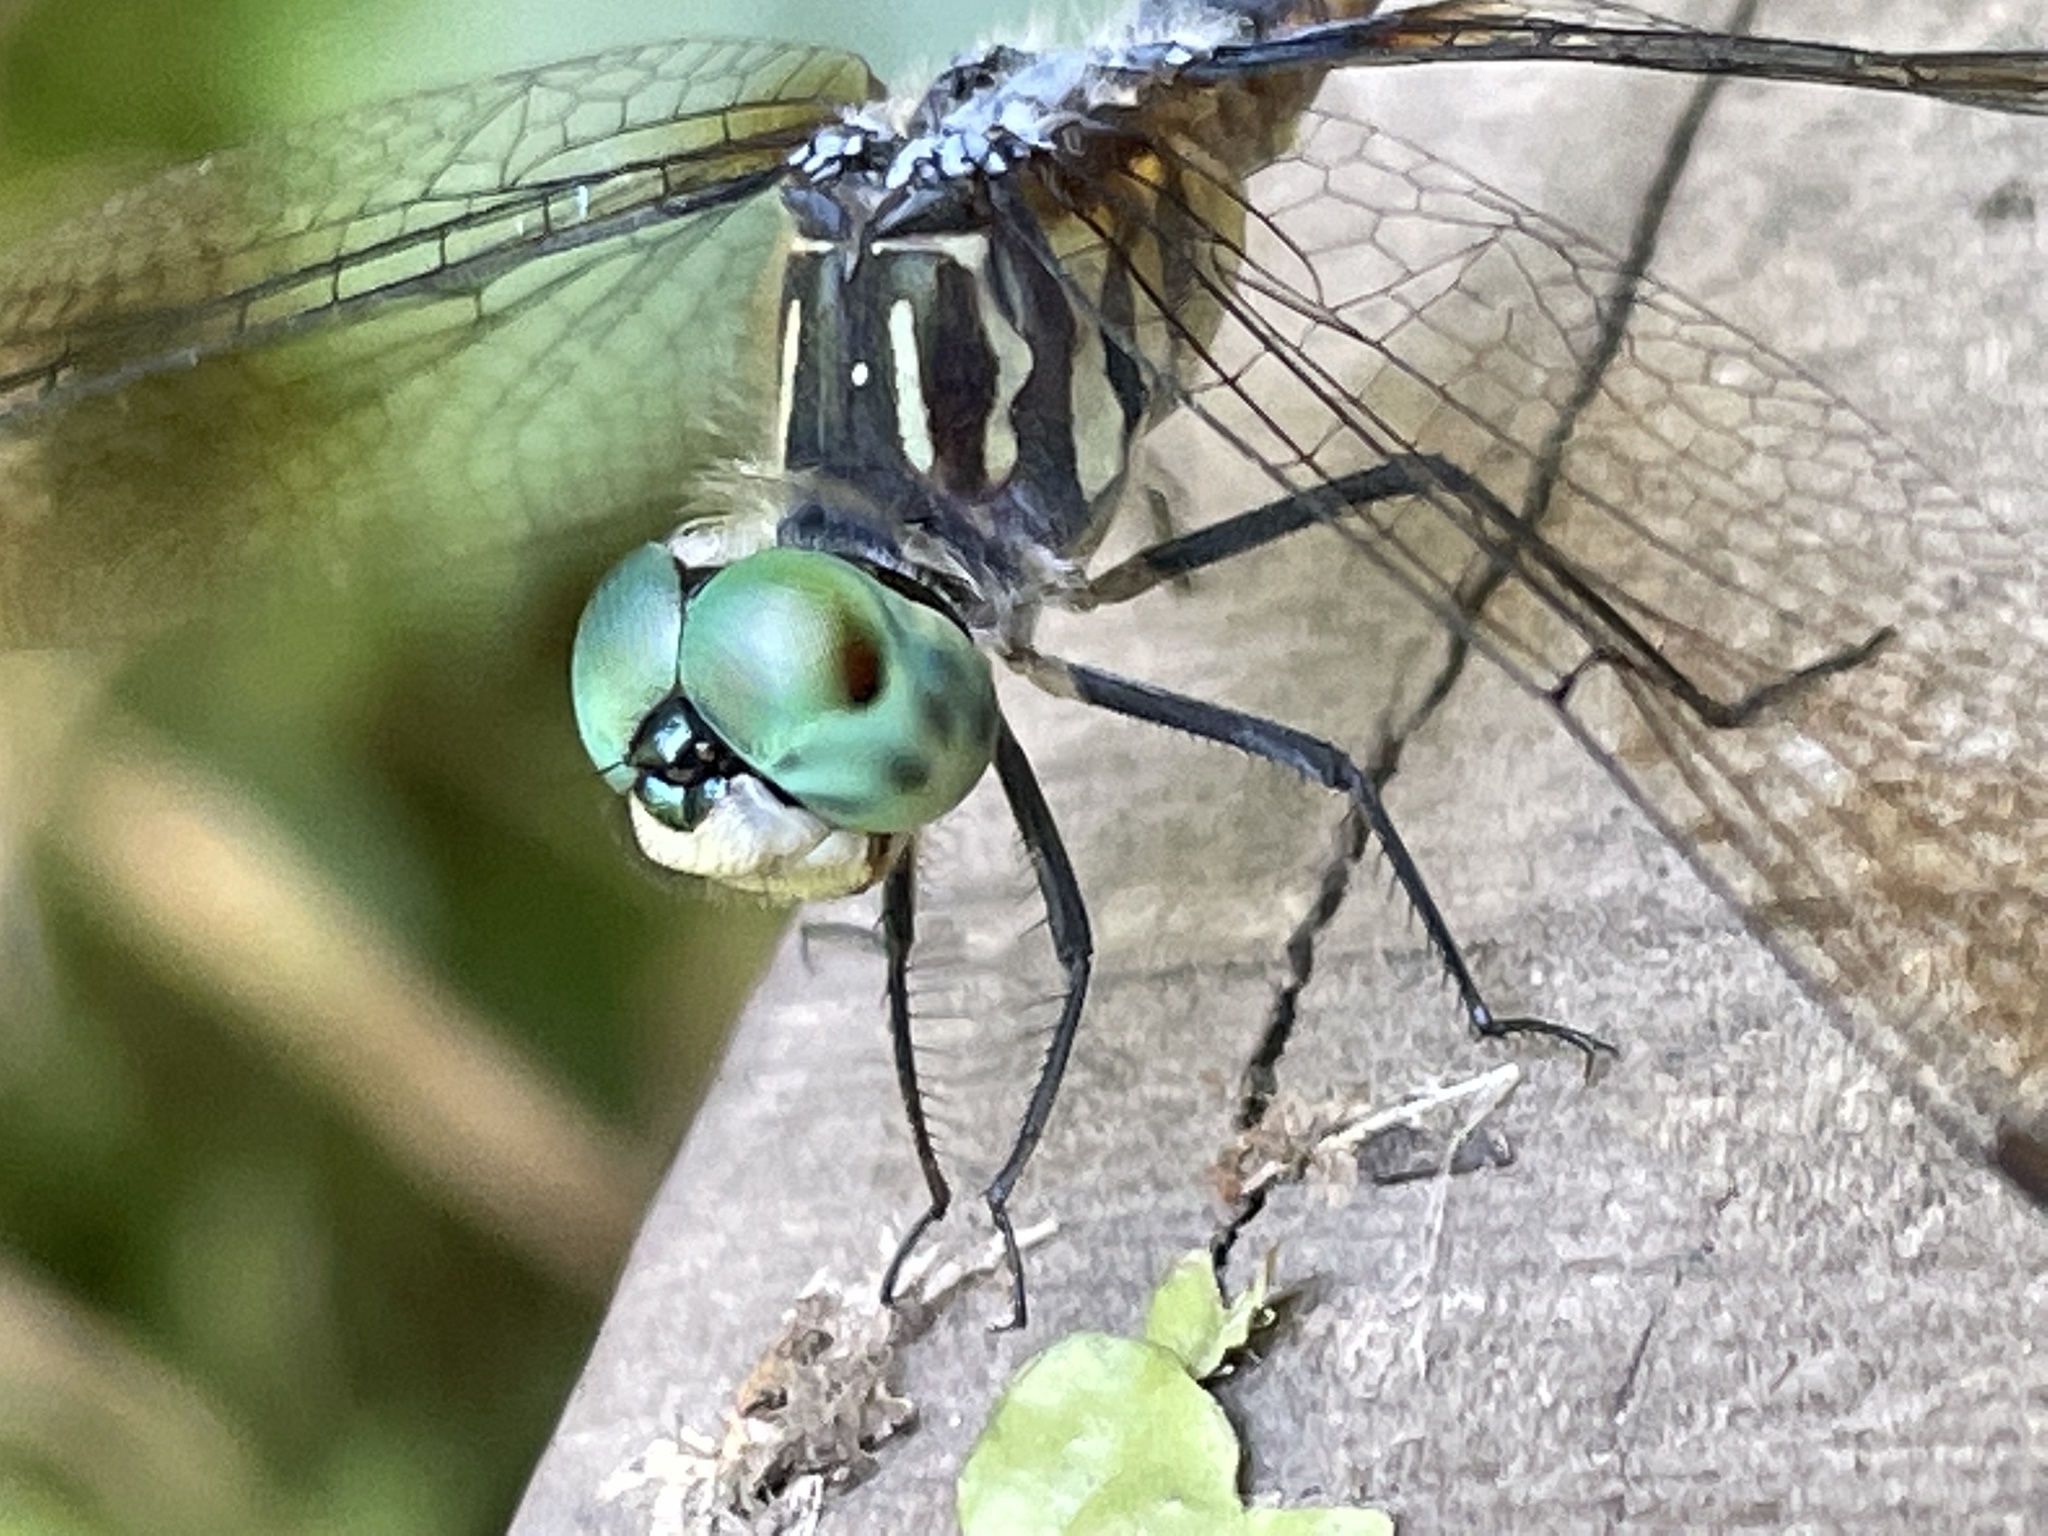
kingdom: Animalia
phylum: Arthropoda
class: Insecta
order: Odonata
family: Libellulidae
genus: Pachydiplax
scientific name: Pachydiplax longipennis
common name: Blue dasher
